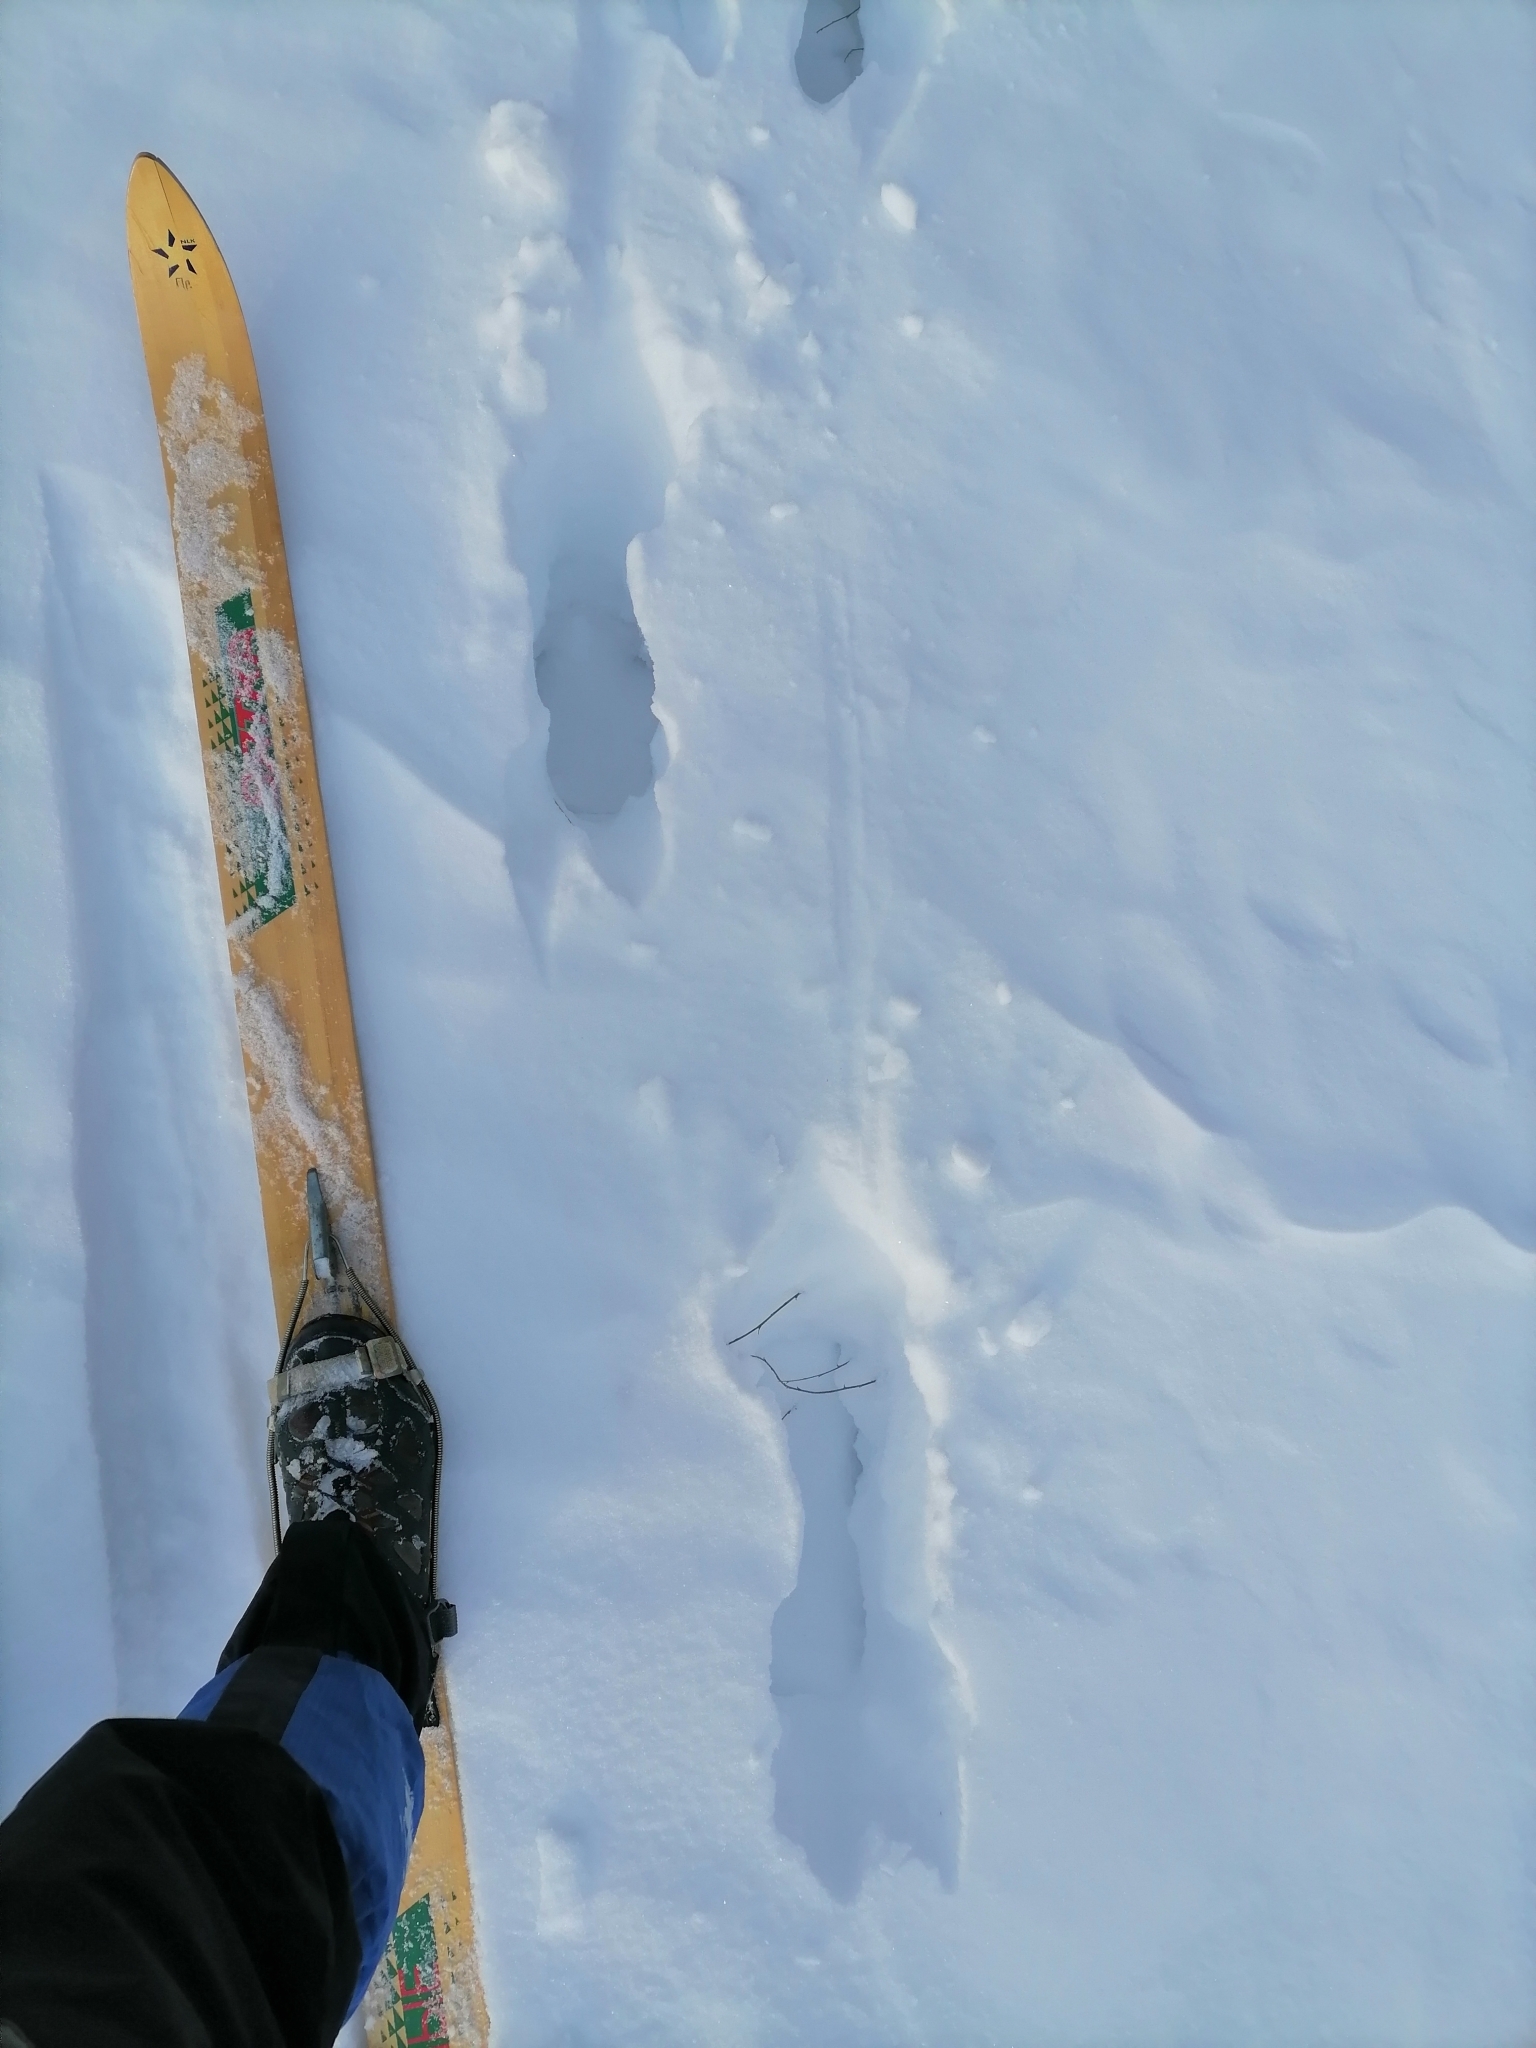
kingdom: Animalia
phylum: Chordata
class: Mammalia
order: Artiodactyla
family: Cervidae
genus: Alces
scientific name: Alces alces
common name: Moose
